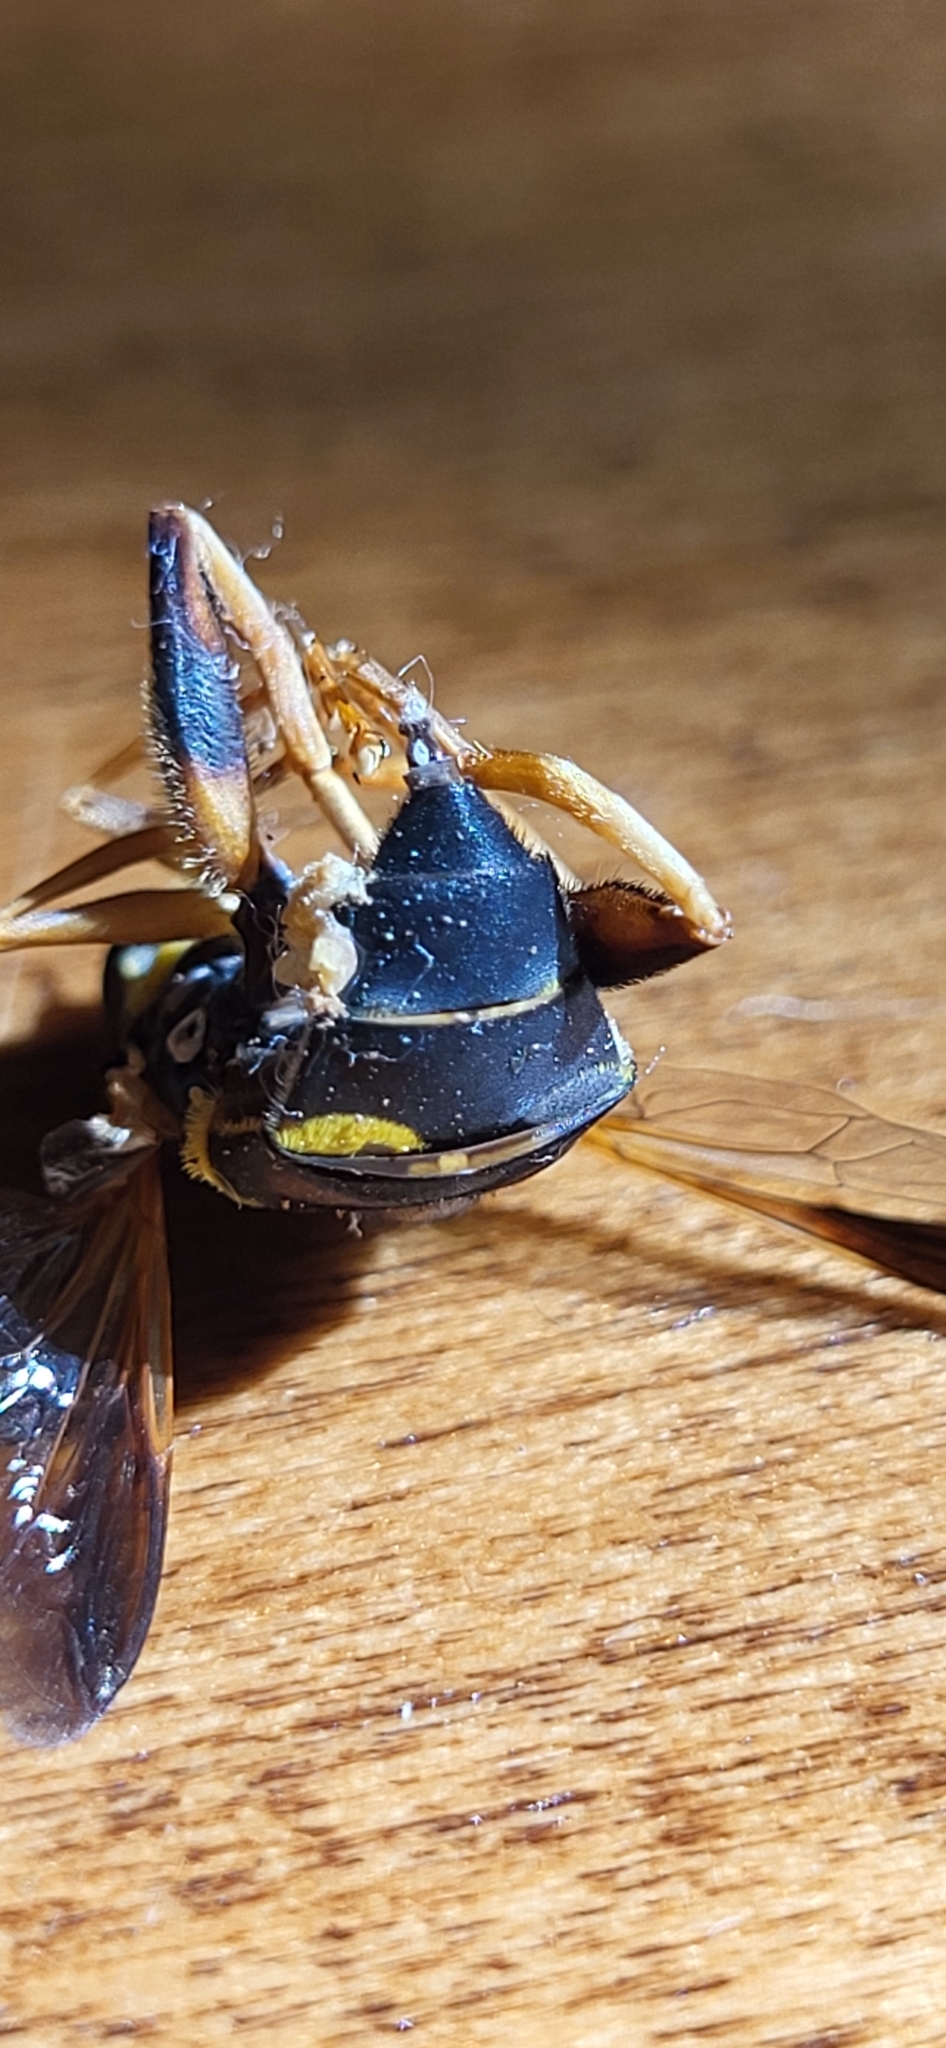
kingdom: Animalia
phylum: Arthropoda
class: Insecta
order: Diptera
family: Syrphidae
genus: Meromacrus
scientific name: Meromacrus acutus
